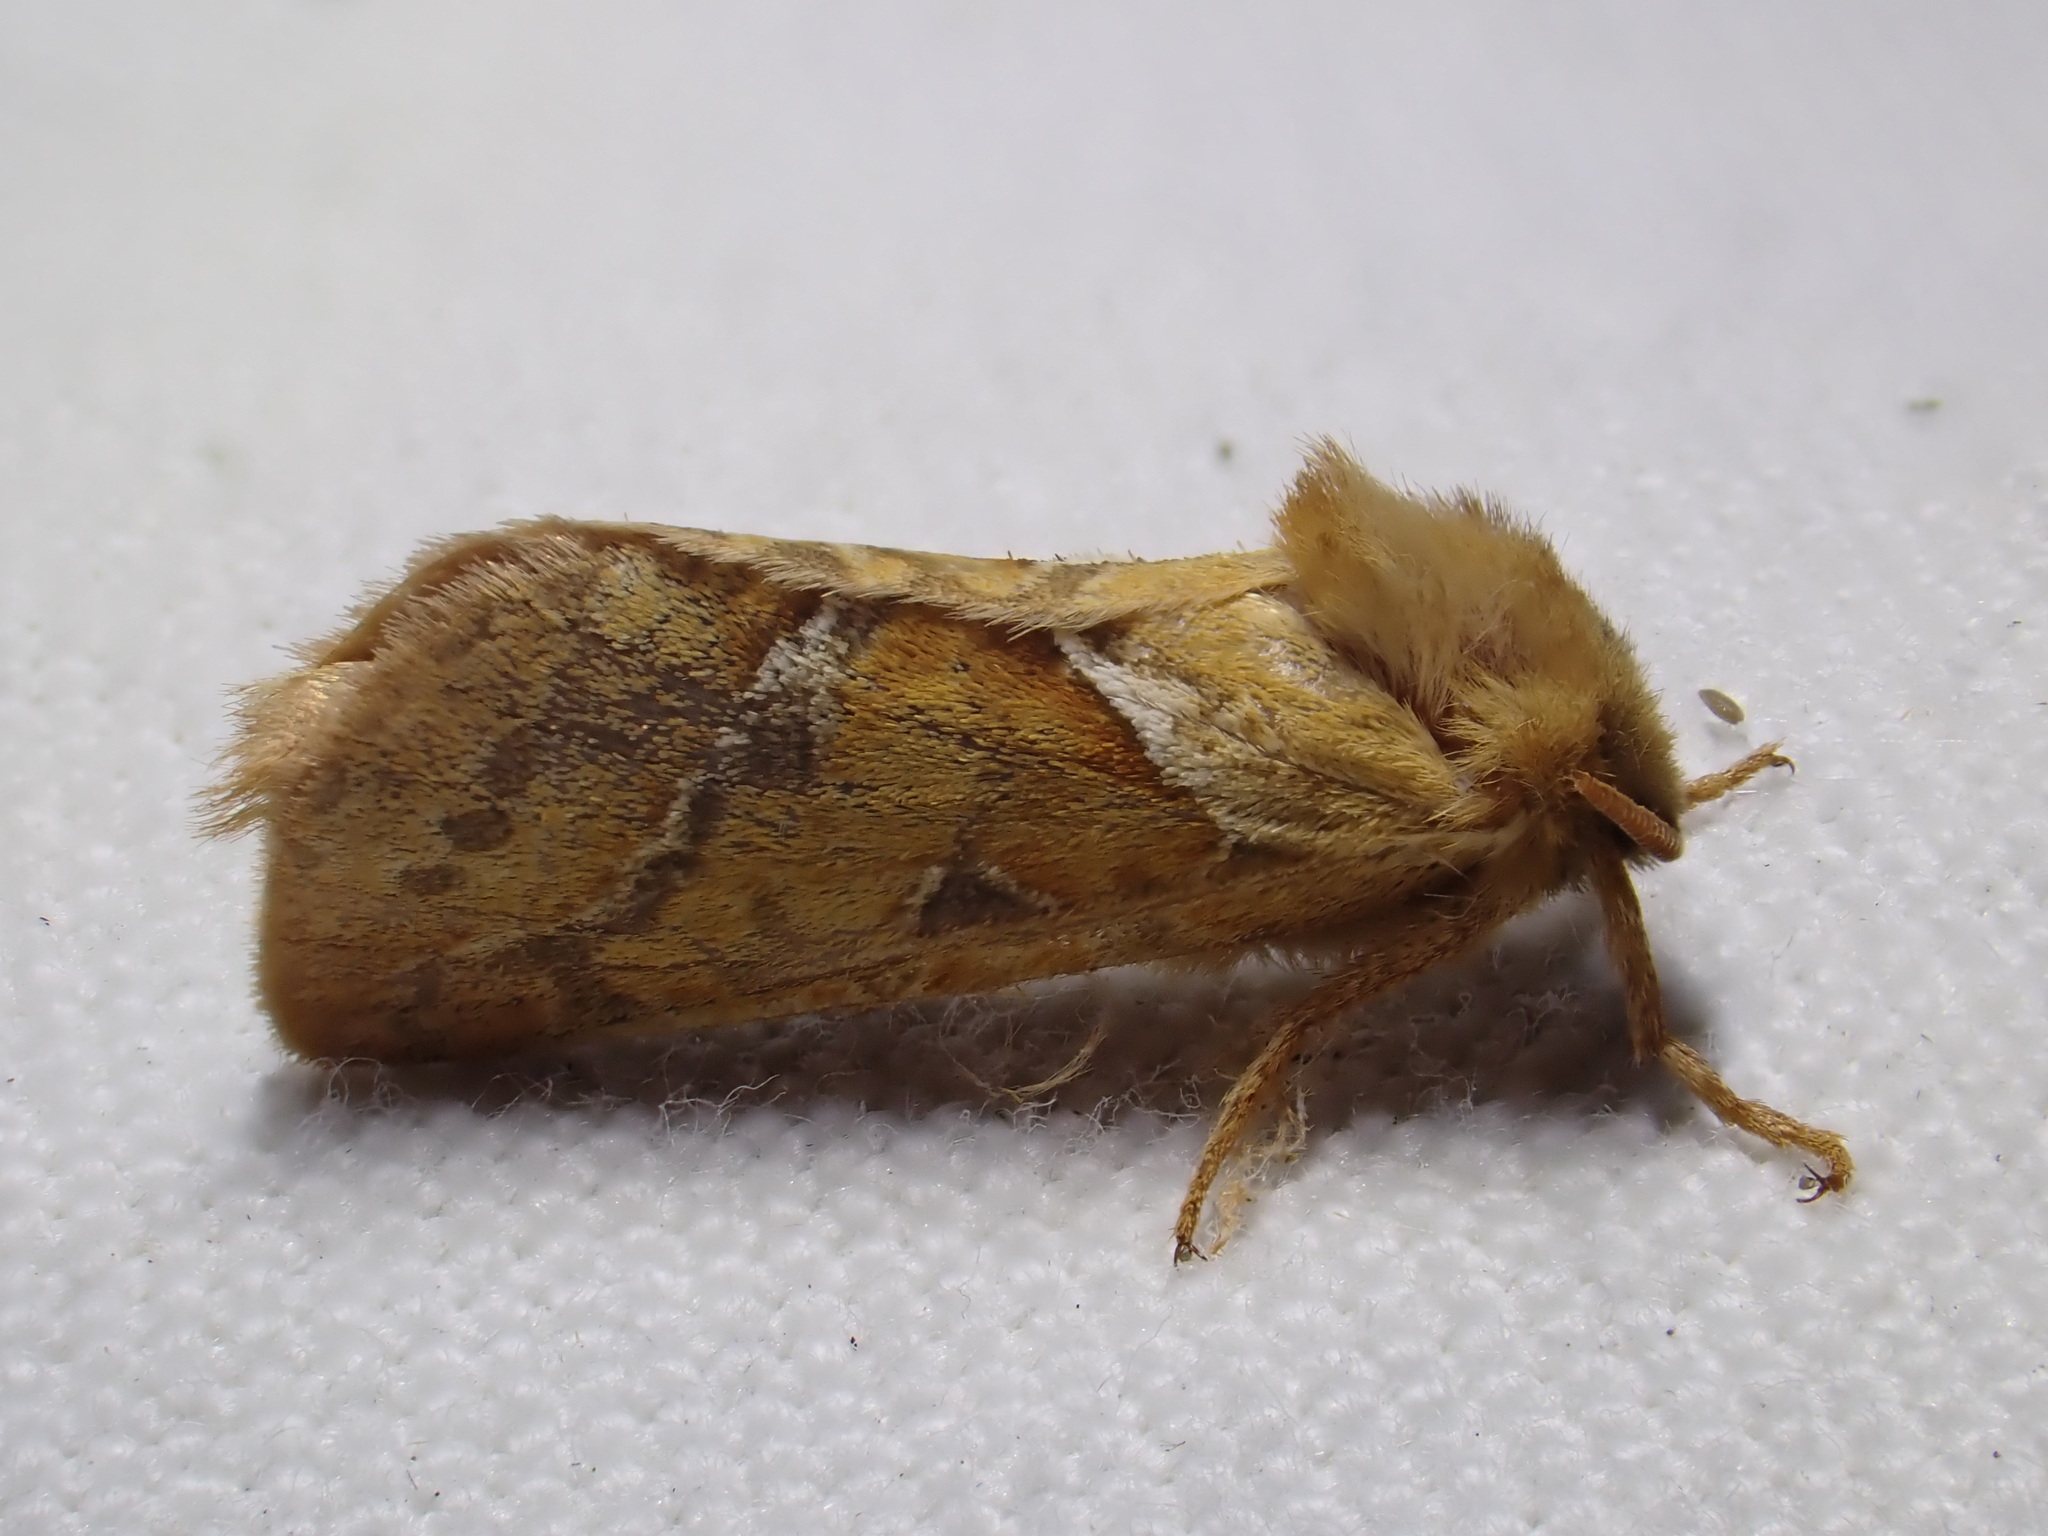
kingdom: Animalia
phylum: Arthropoda
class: Insecta
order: Lepidoptera
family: Hepialidae
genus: Triodia
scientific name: Triodia sylvina
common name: Orange swift
